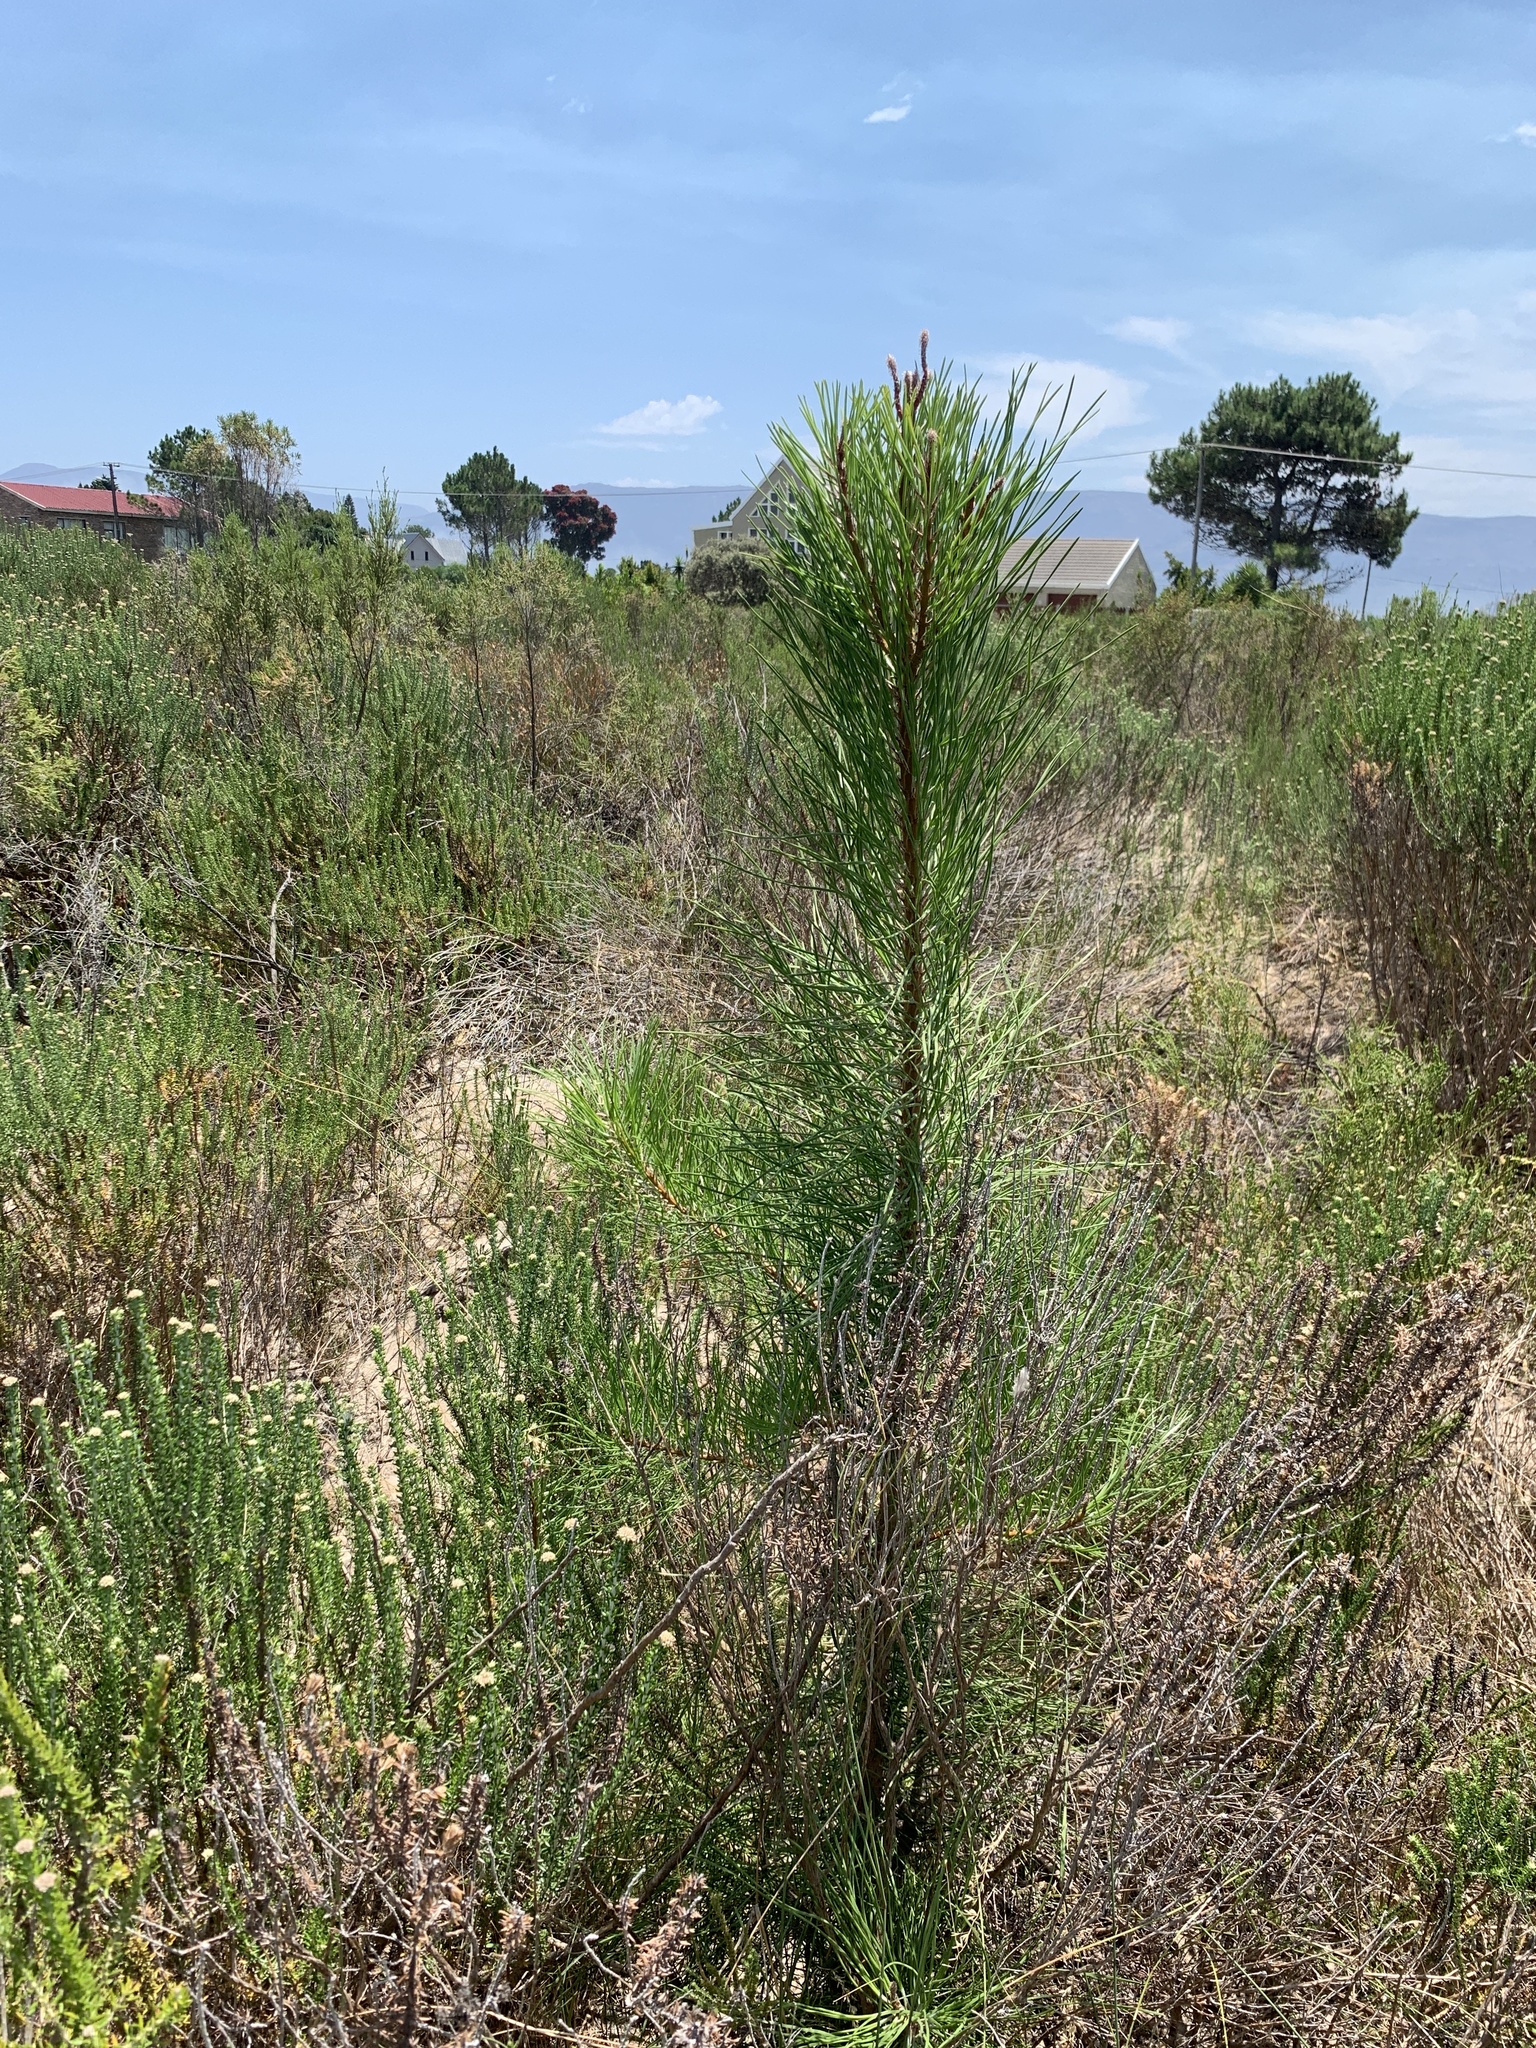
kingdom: Plantae
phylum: Tracheophyta
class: Pinopsida
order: Pinales
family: Pinaceae
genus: Pinus
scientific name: Pinus pinaster
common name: Maritime pine
